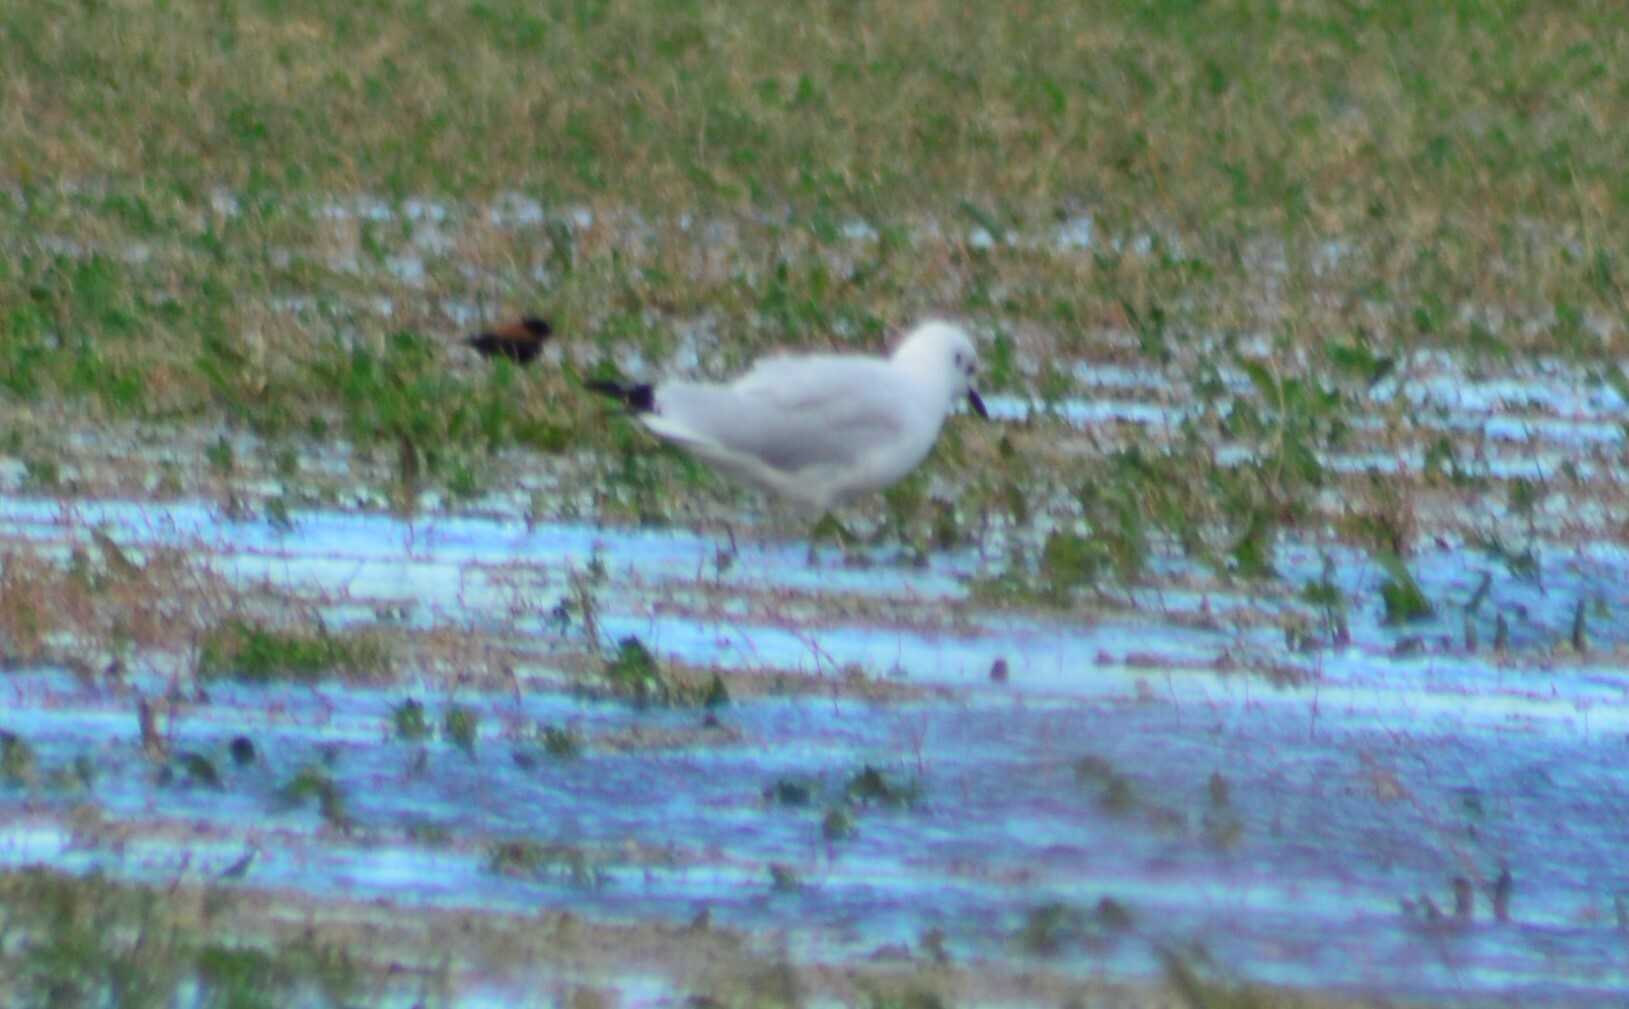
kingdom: Animalia
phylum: Chordata
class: Aves
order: Passeriformes
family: Tyrannidae
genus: Lessonia
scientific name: Lessonia rufa
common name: Austral negrito
